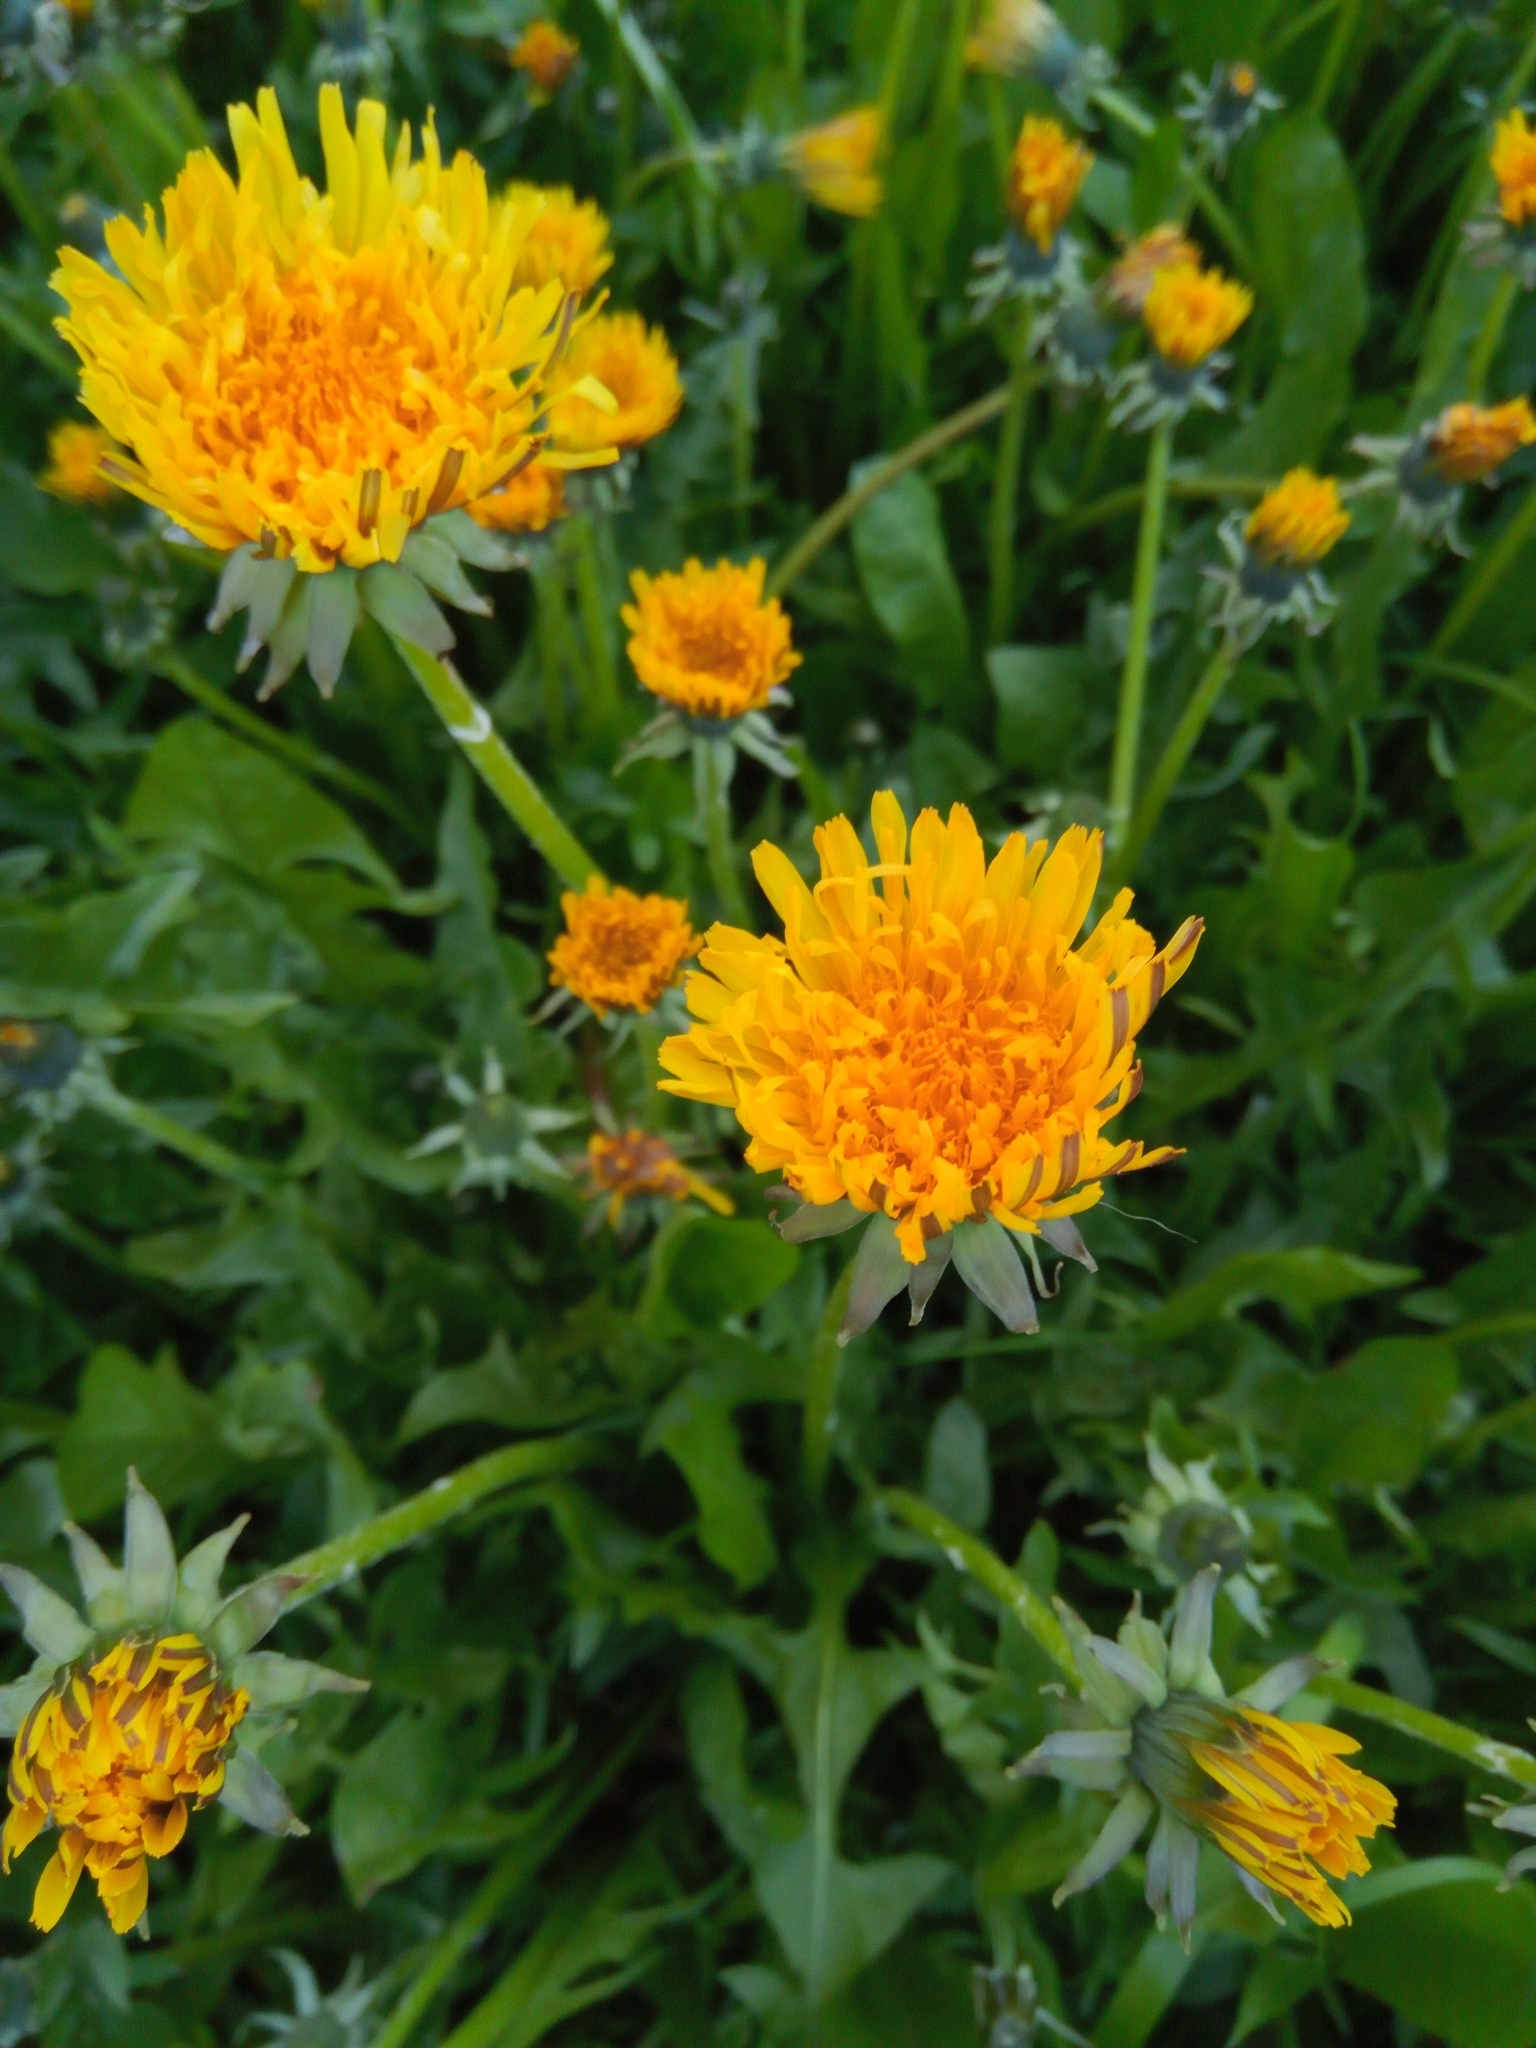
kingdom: Plantae
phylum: Tracheophyta
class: Magnoliopsida
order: Asterales
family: Asteraceae
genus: Taraxacum
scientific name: Taraxacum officinale
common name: Common dandelion
